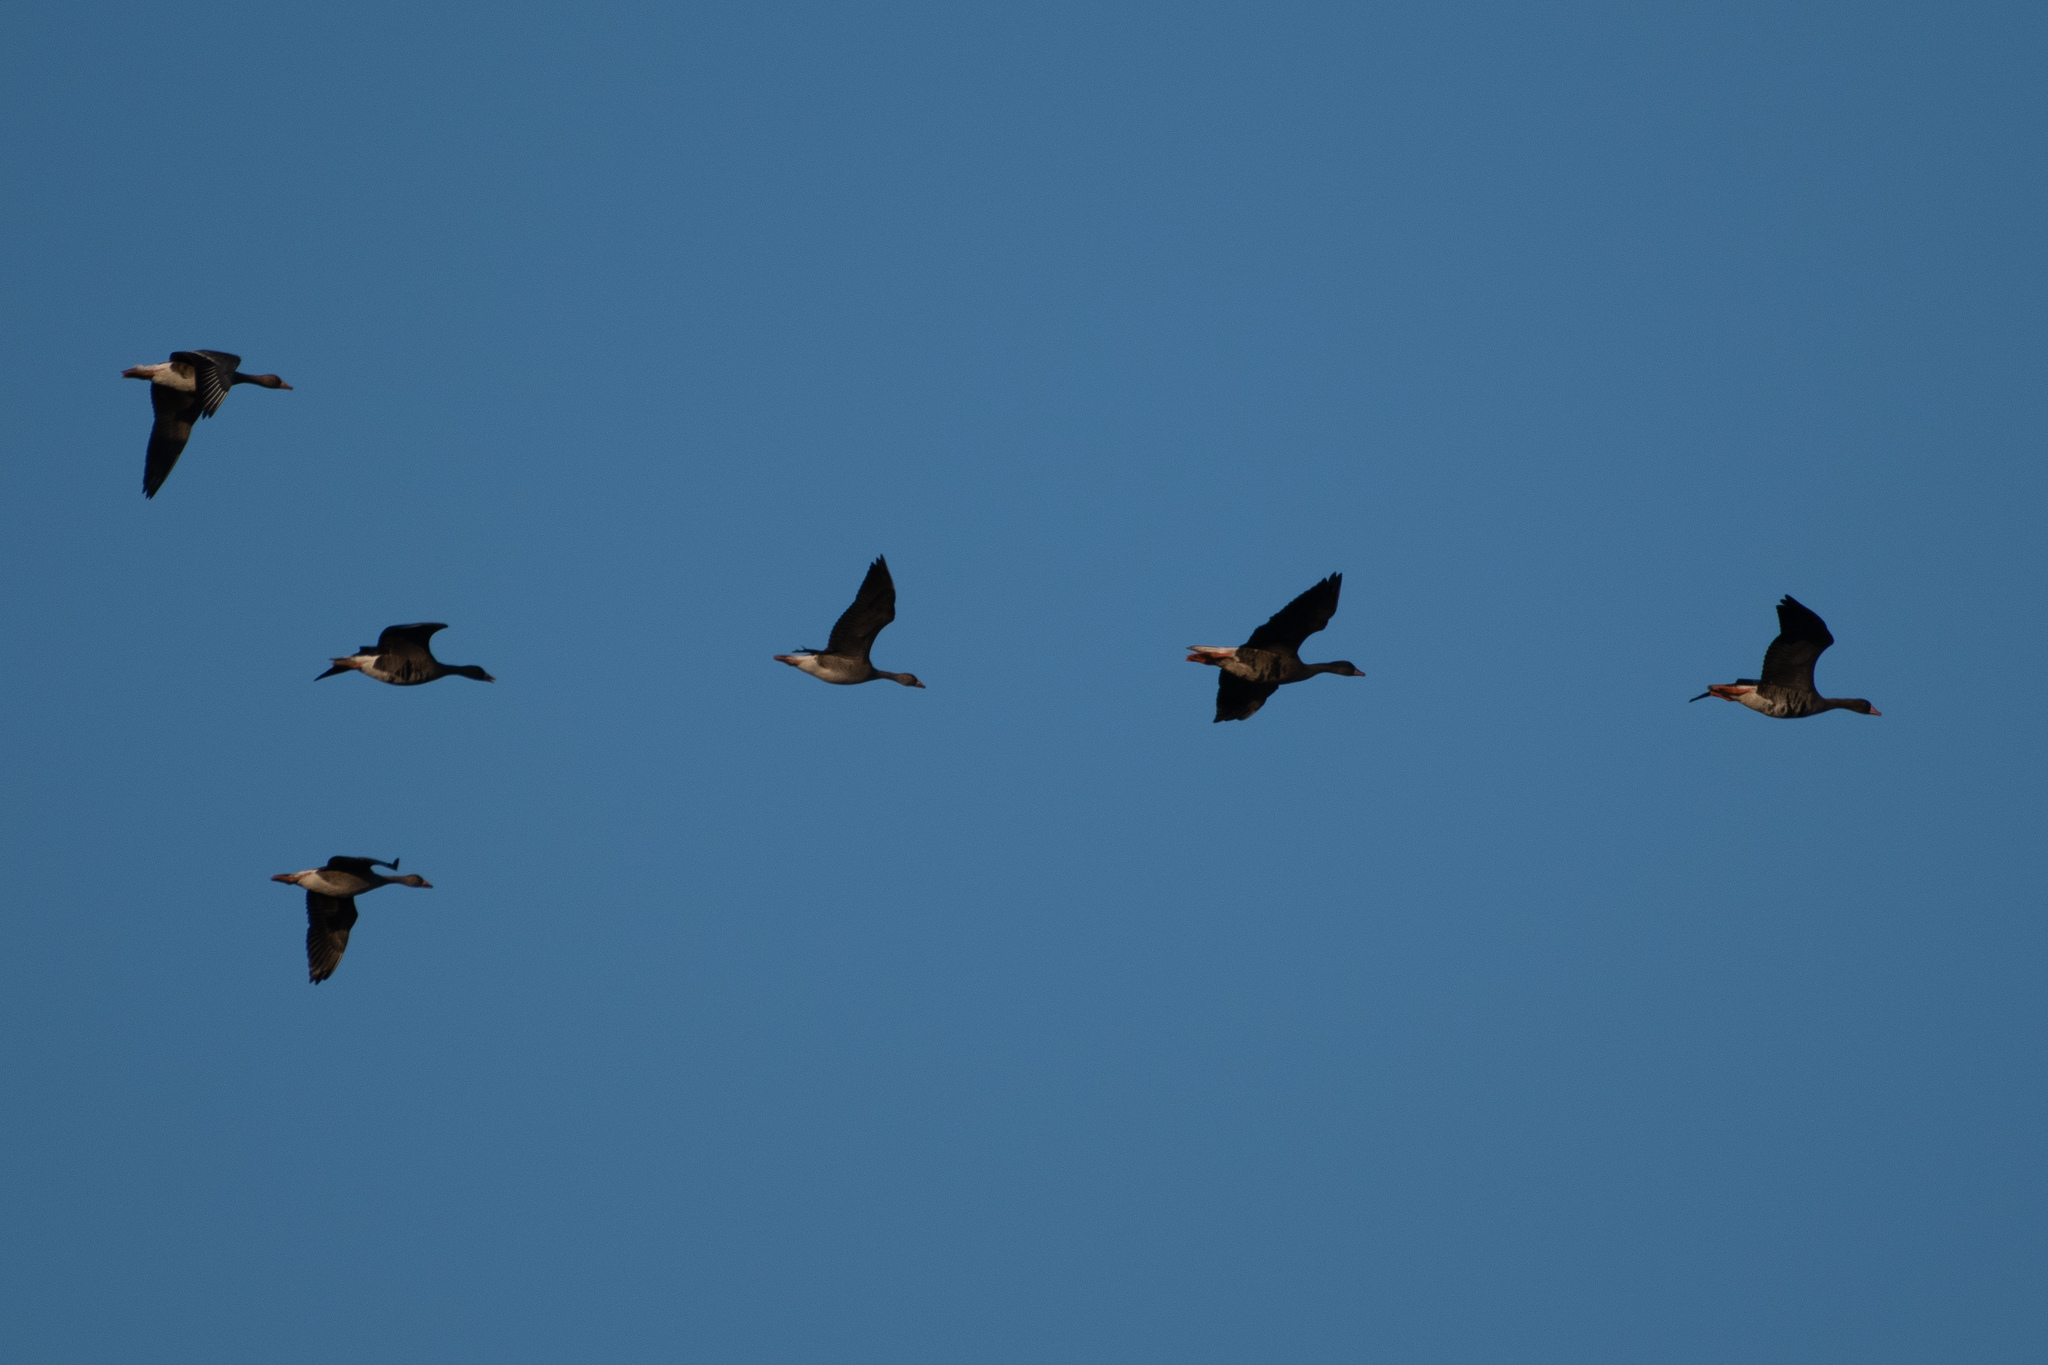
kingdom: Animalia
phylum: Chordata
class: Aves
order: Anseriformes
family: Anatidae
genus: Anser
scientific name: Anser albifrons
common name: Greater white-fronted goose
